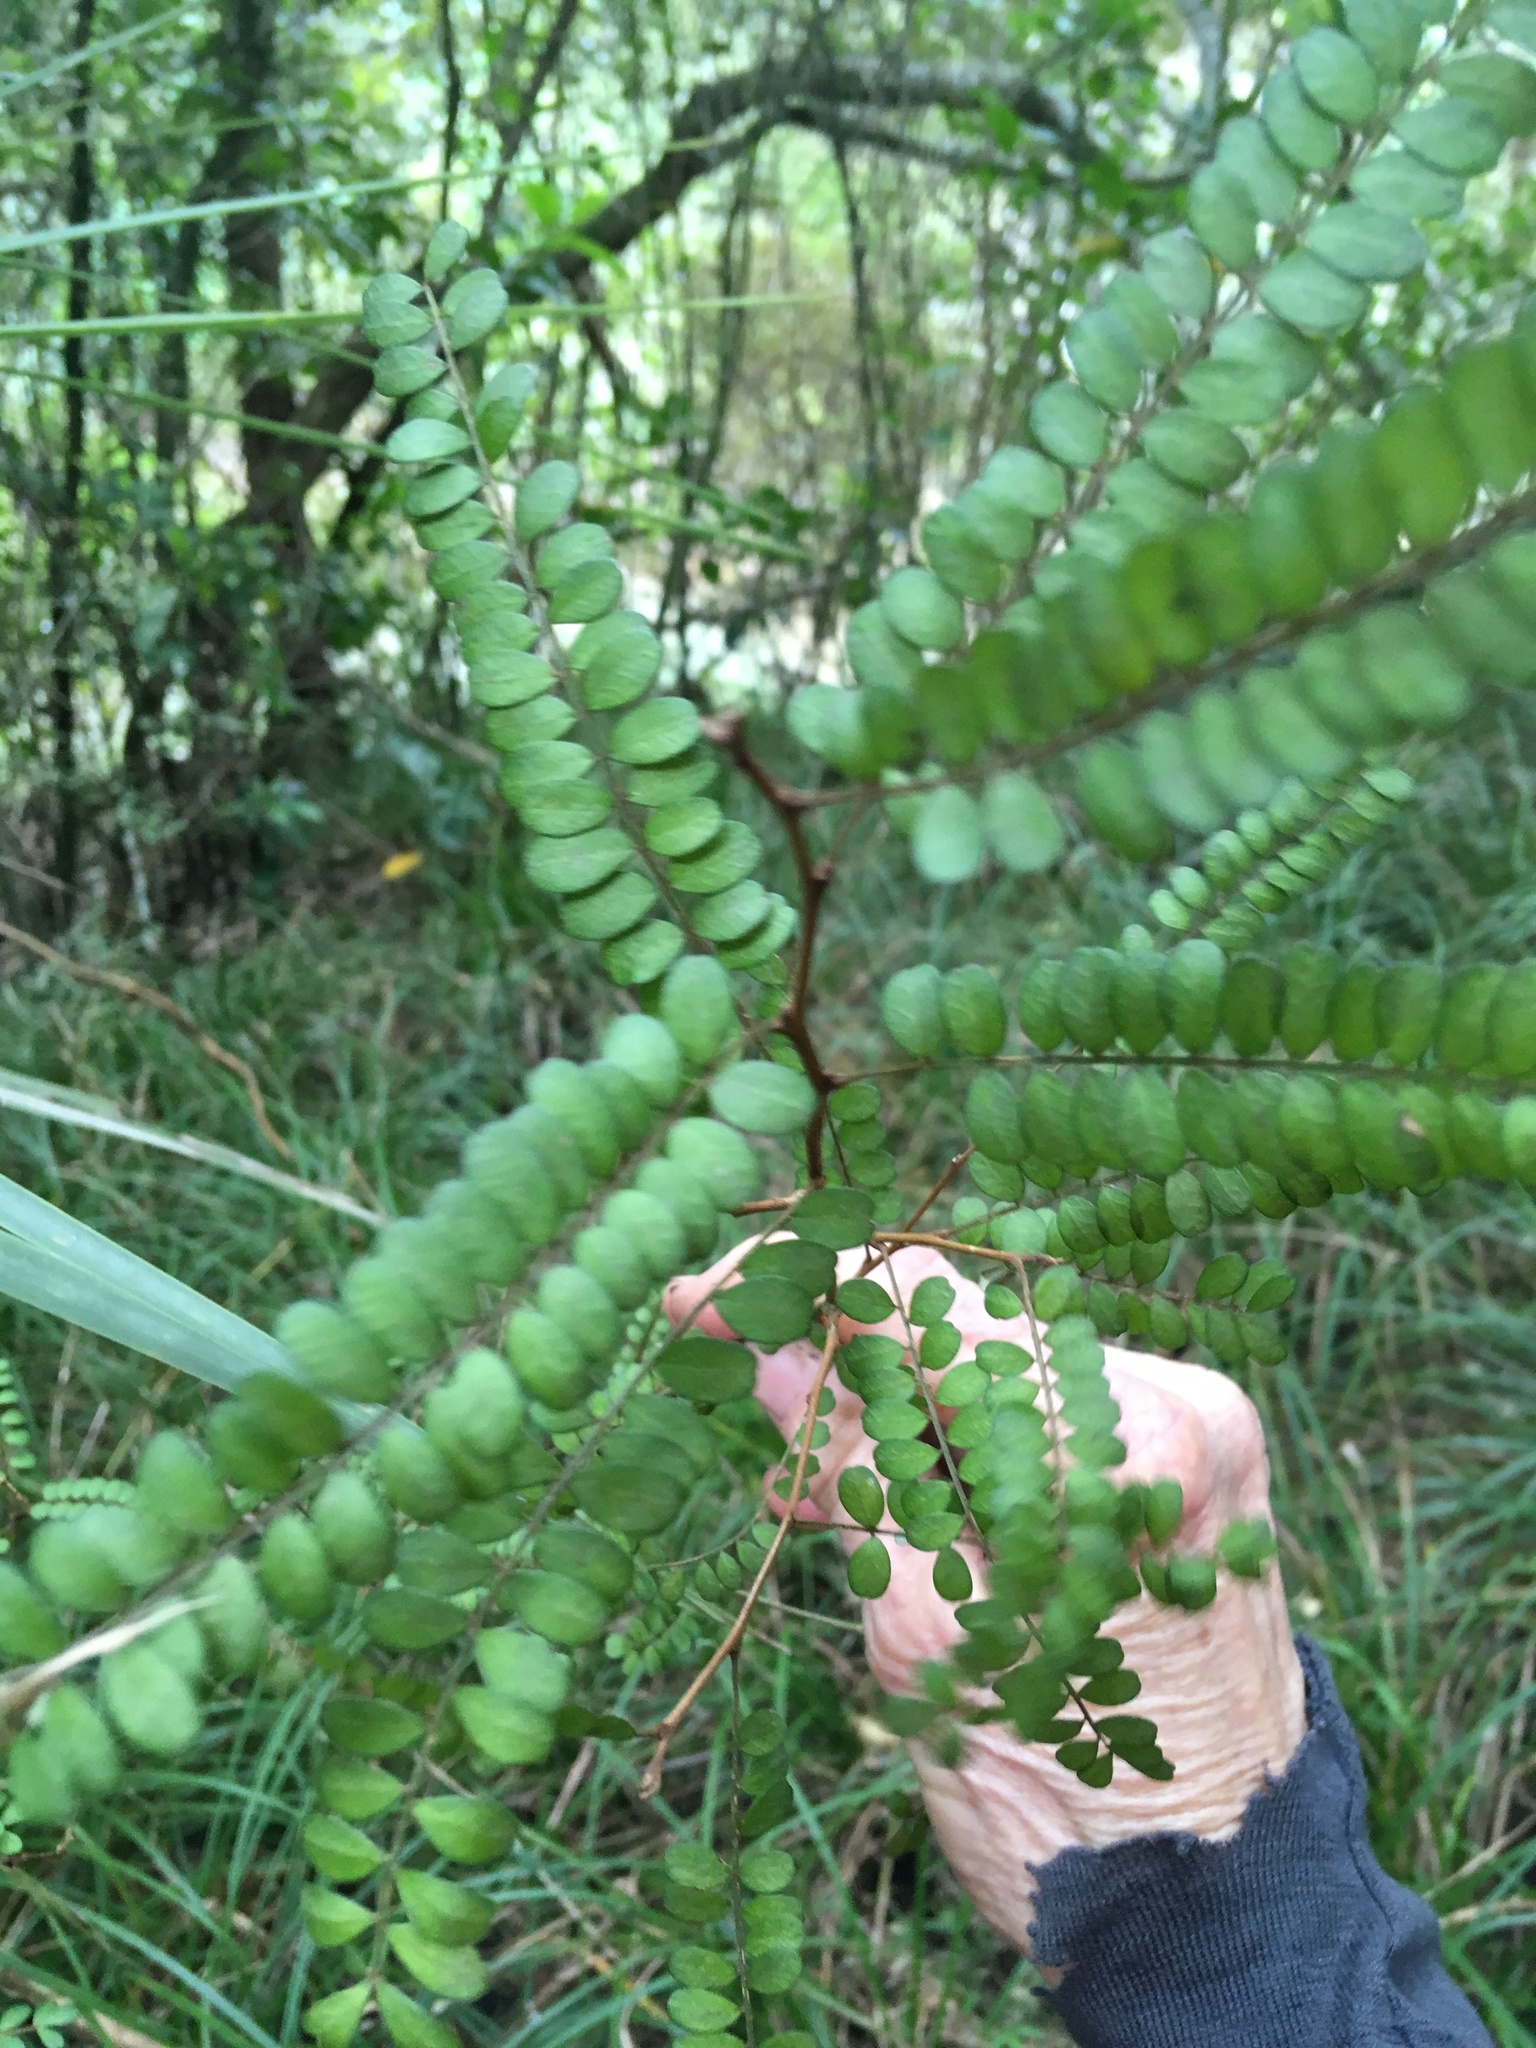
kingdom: Plantae
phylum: Tracheophyta
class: Magnoliopsida
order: Fabales
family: Fabaceae
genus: Sophora
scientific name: Sophora chathamica
